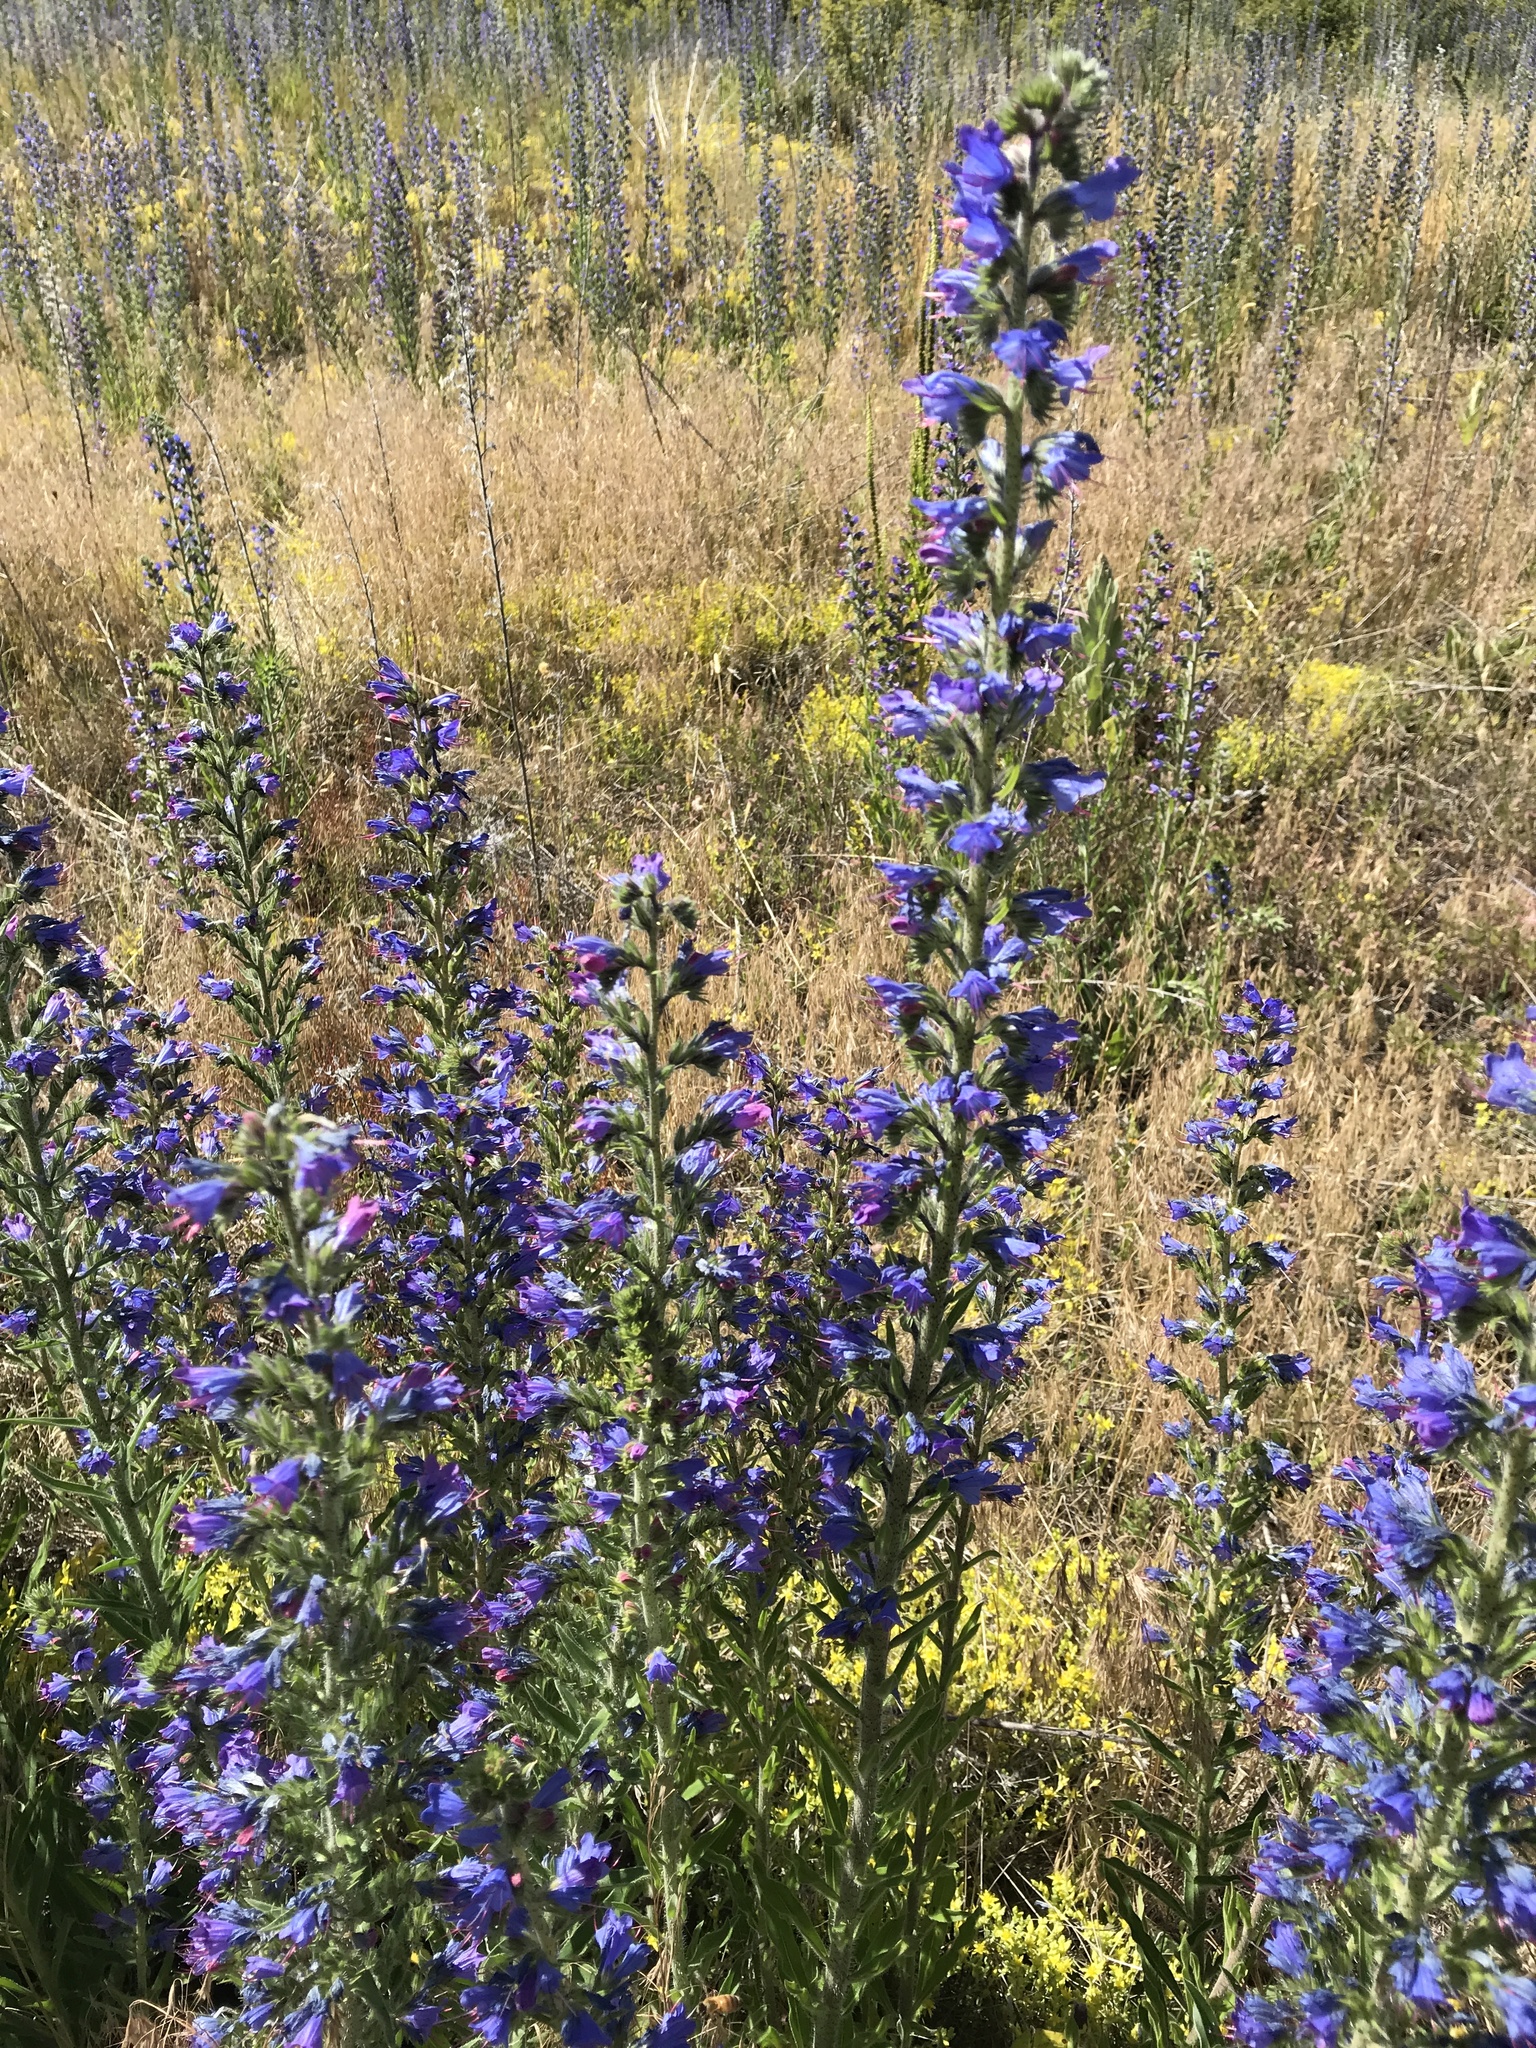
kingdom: Plantae
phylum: Tracheophyta
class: Magnoliopsida
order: Boraginales
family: Boraginaceae
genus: Echium
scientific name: Echium vulgare
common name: Common viper's bugloss
